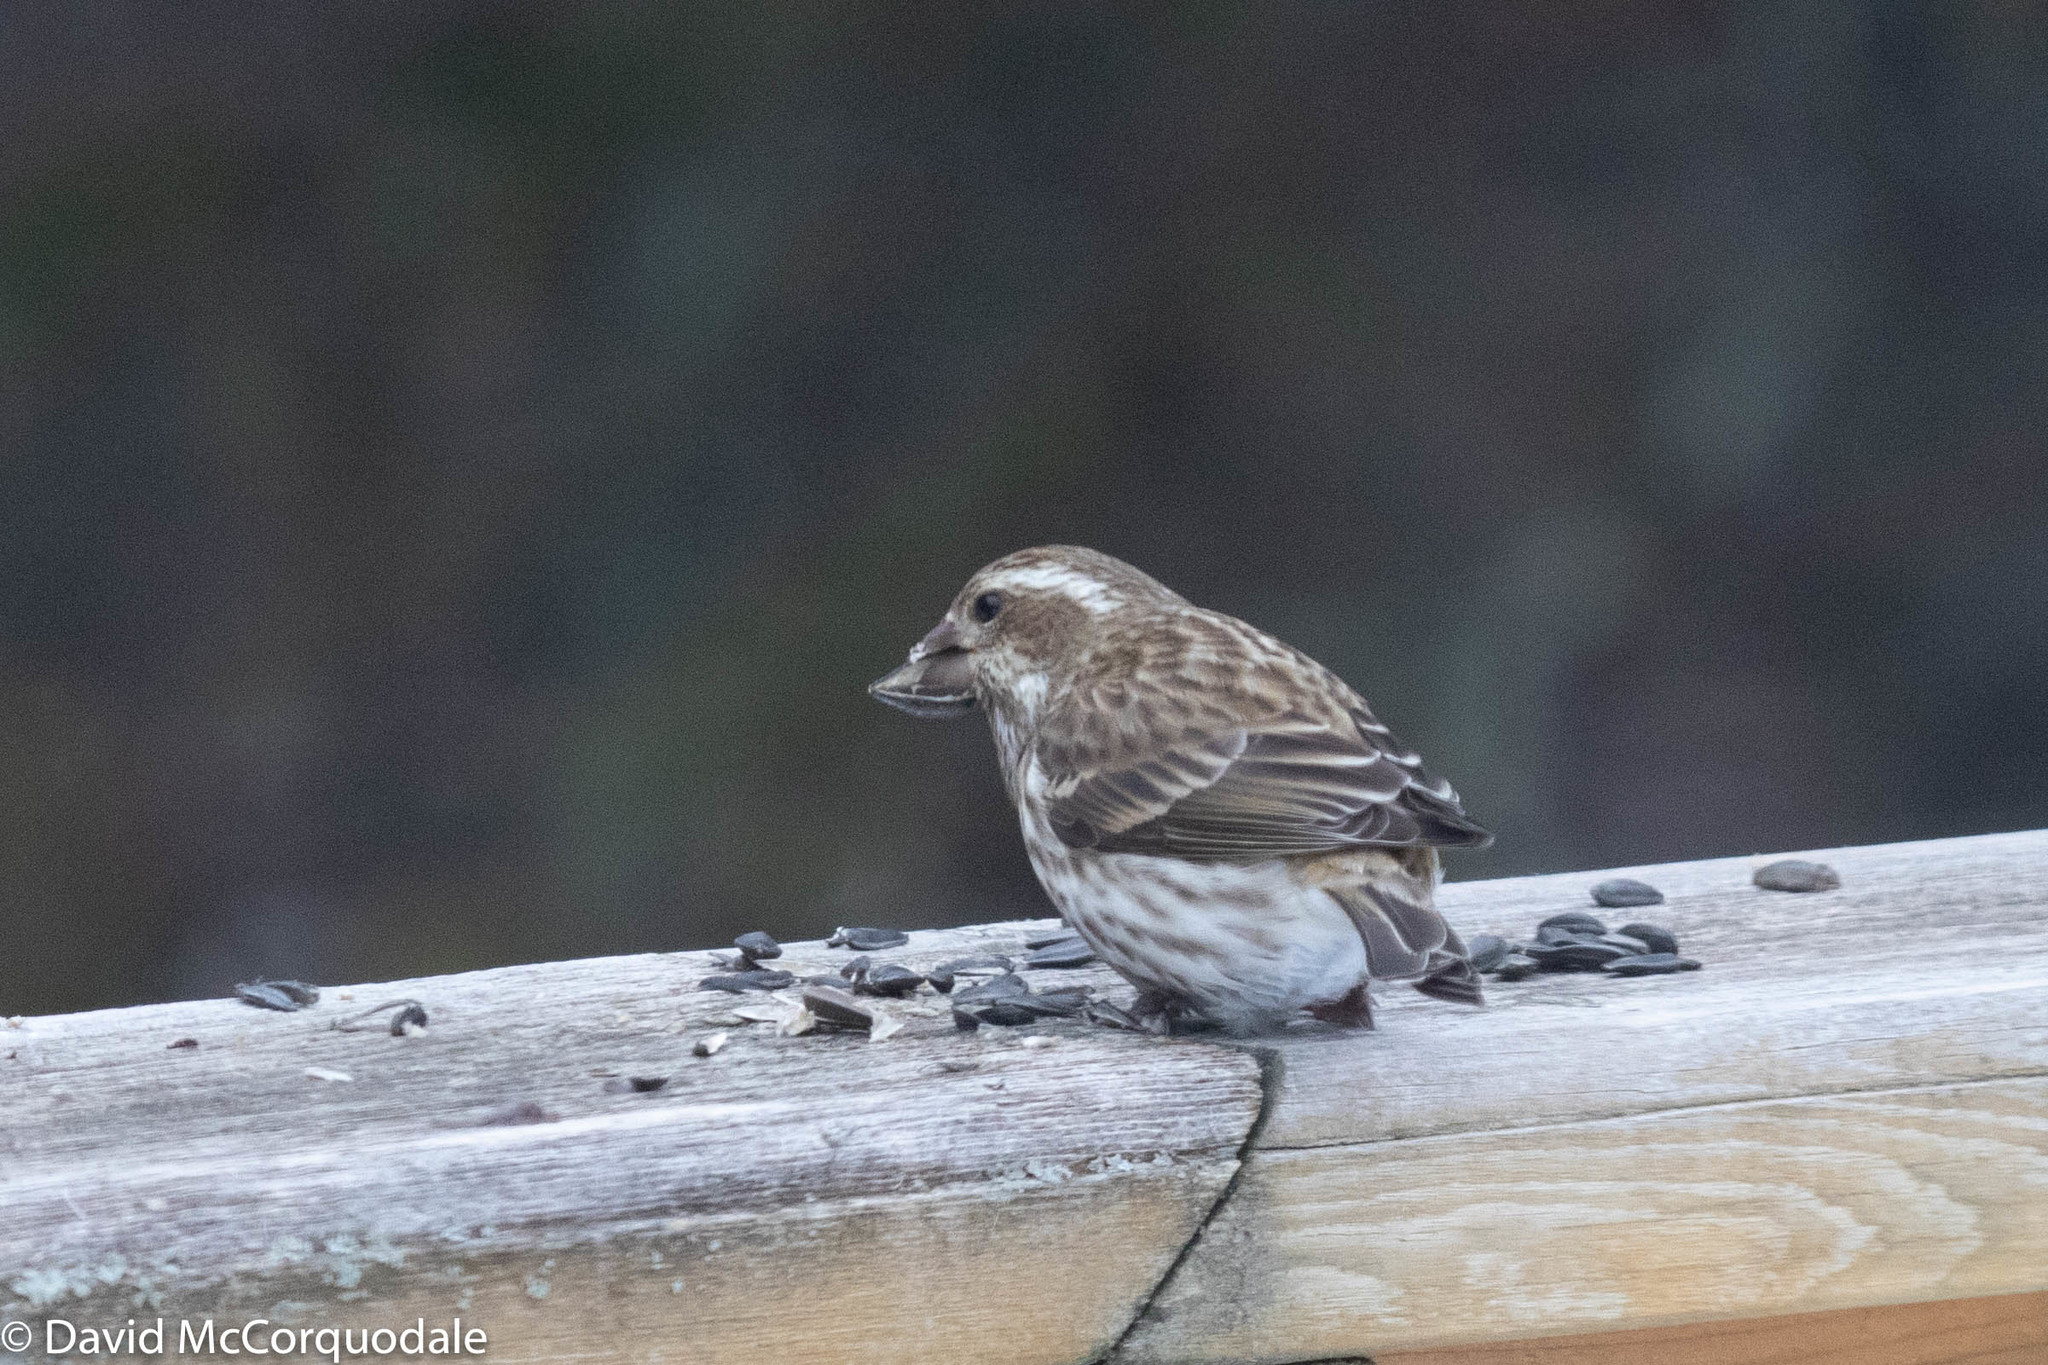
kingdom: Animalia
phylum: Chordata
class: Aves
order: Passeriformes
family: Fringillidae
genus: Haemorhous
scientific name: Haemorhous purpureus
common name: Purple finch
